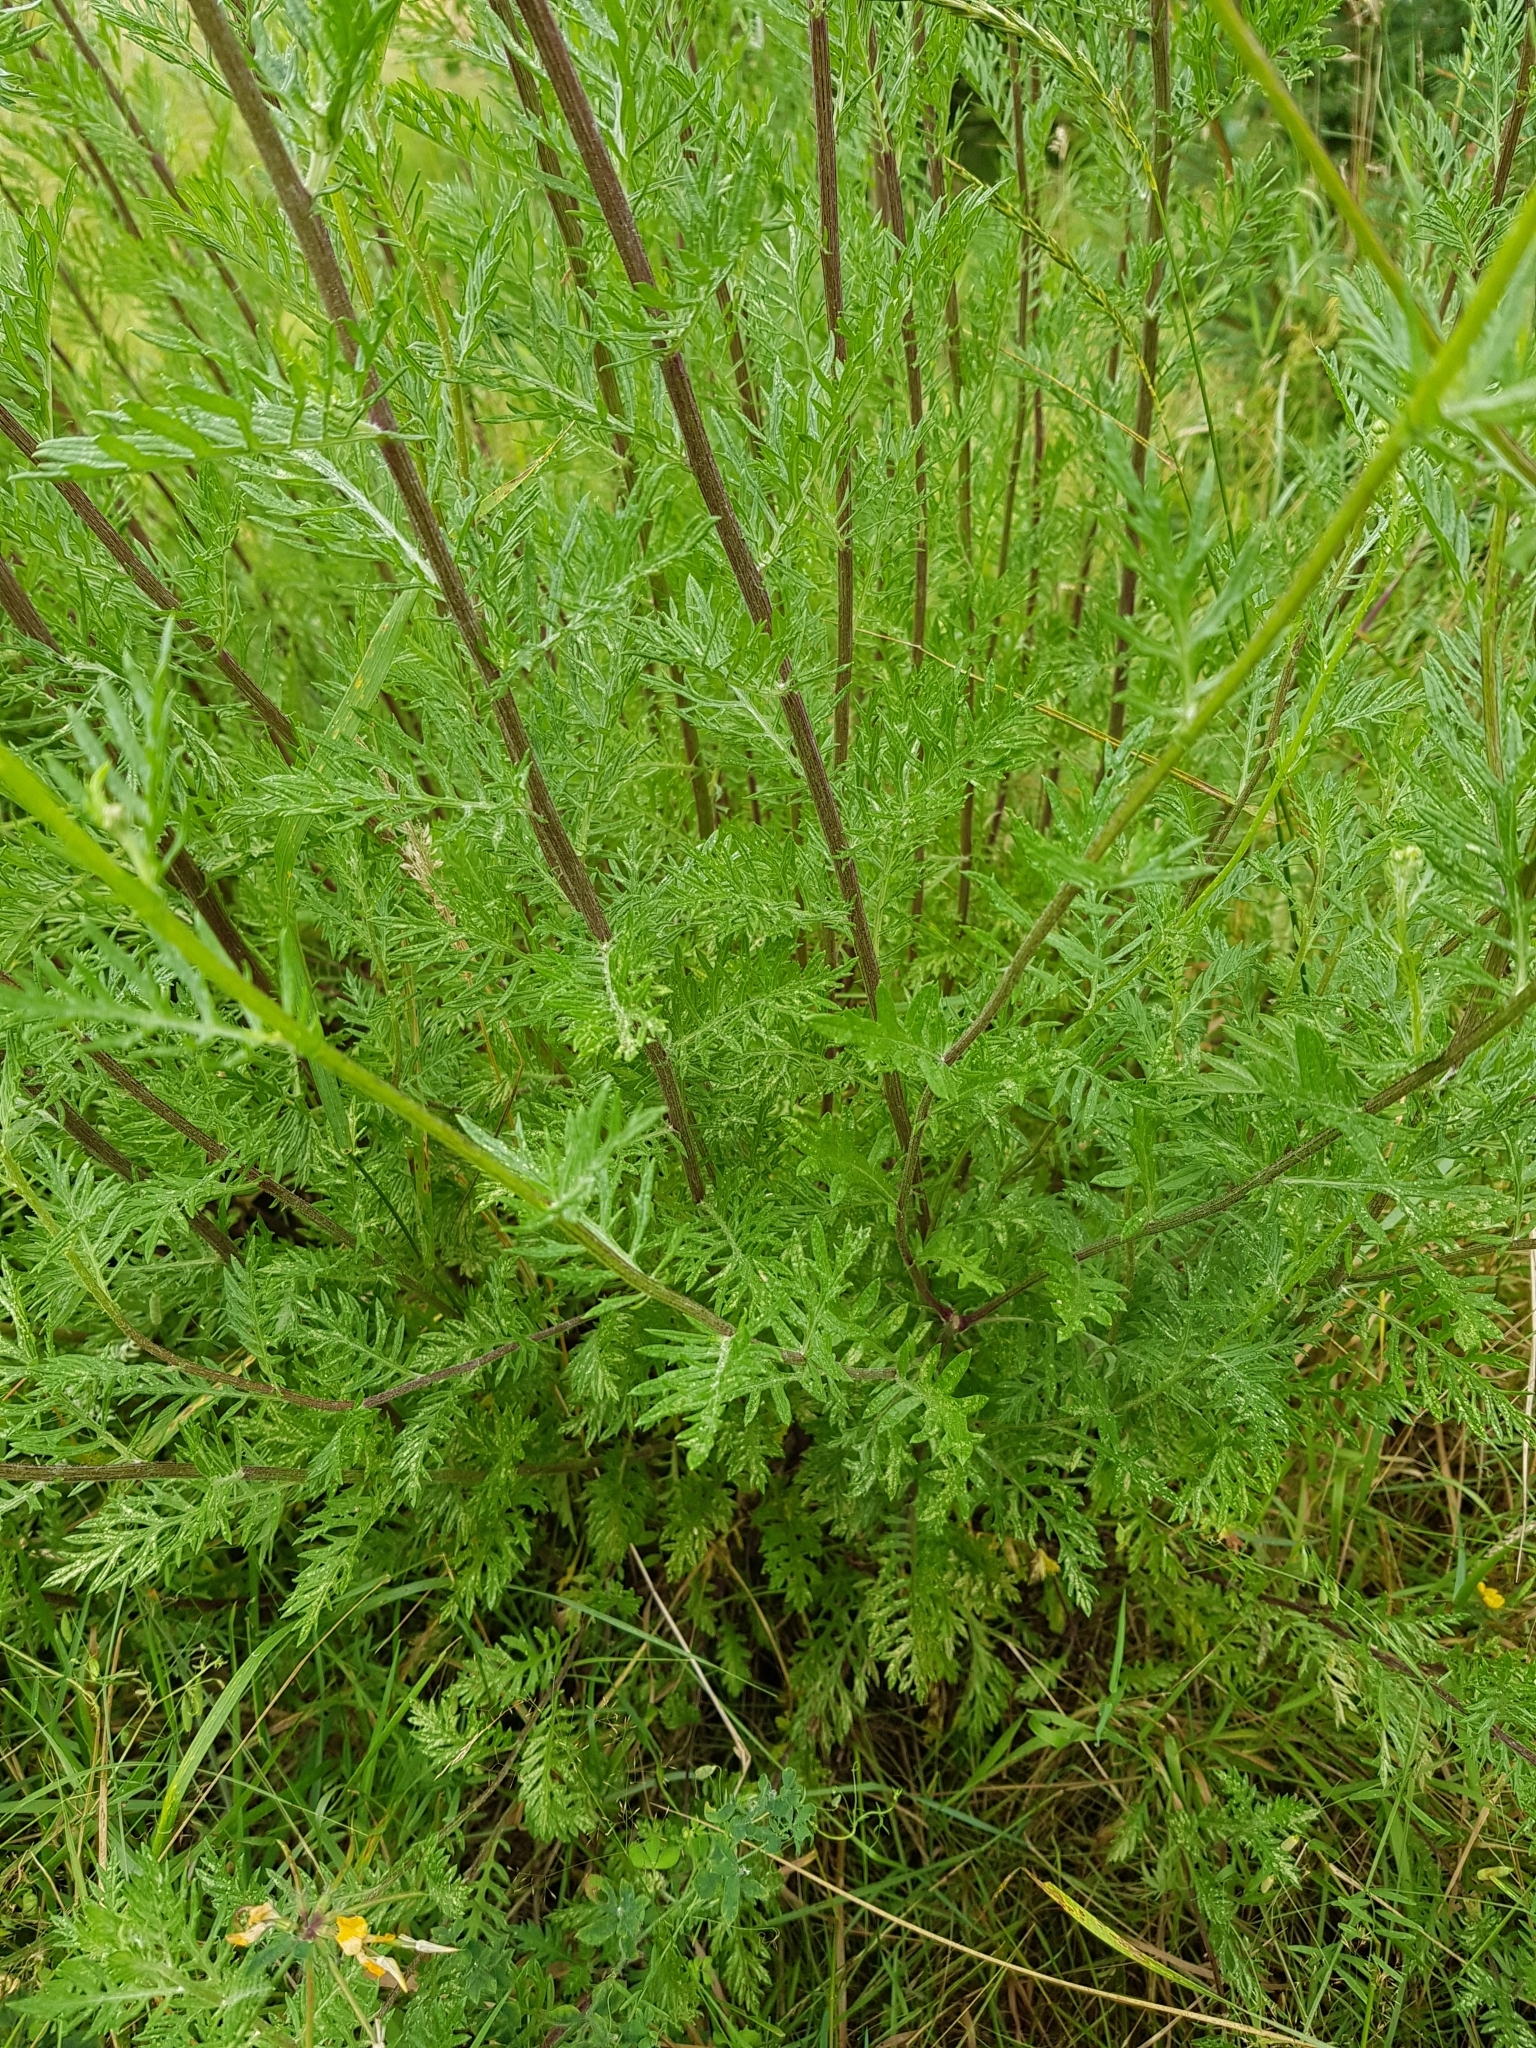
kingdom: Plantae
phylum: Tracheophyta
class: Magnoliopsida
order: Asterales
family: Asteraceae
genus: Senecio
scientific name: Senecio squalidus
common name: Oxford ragwort
